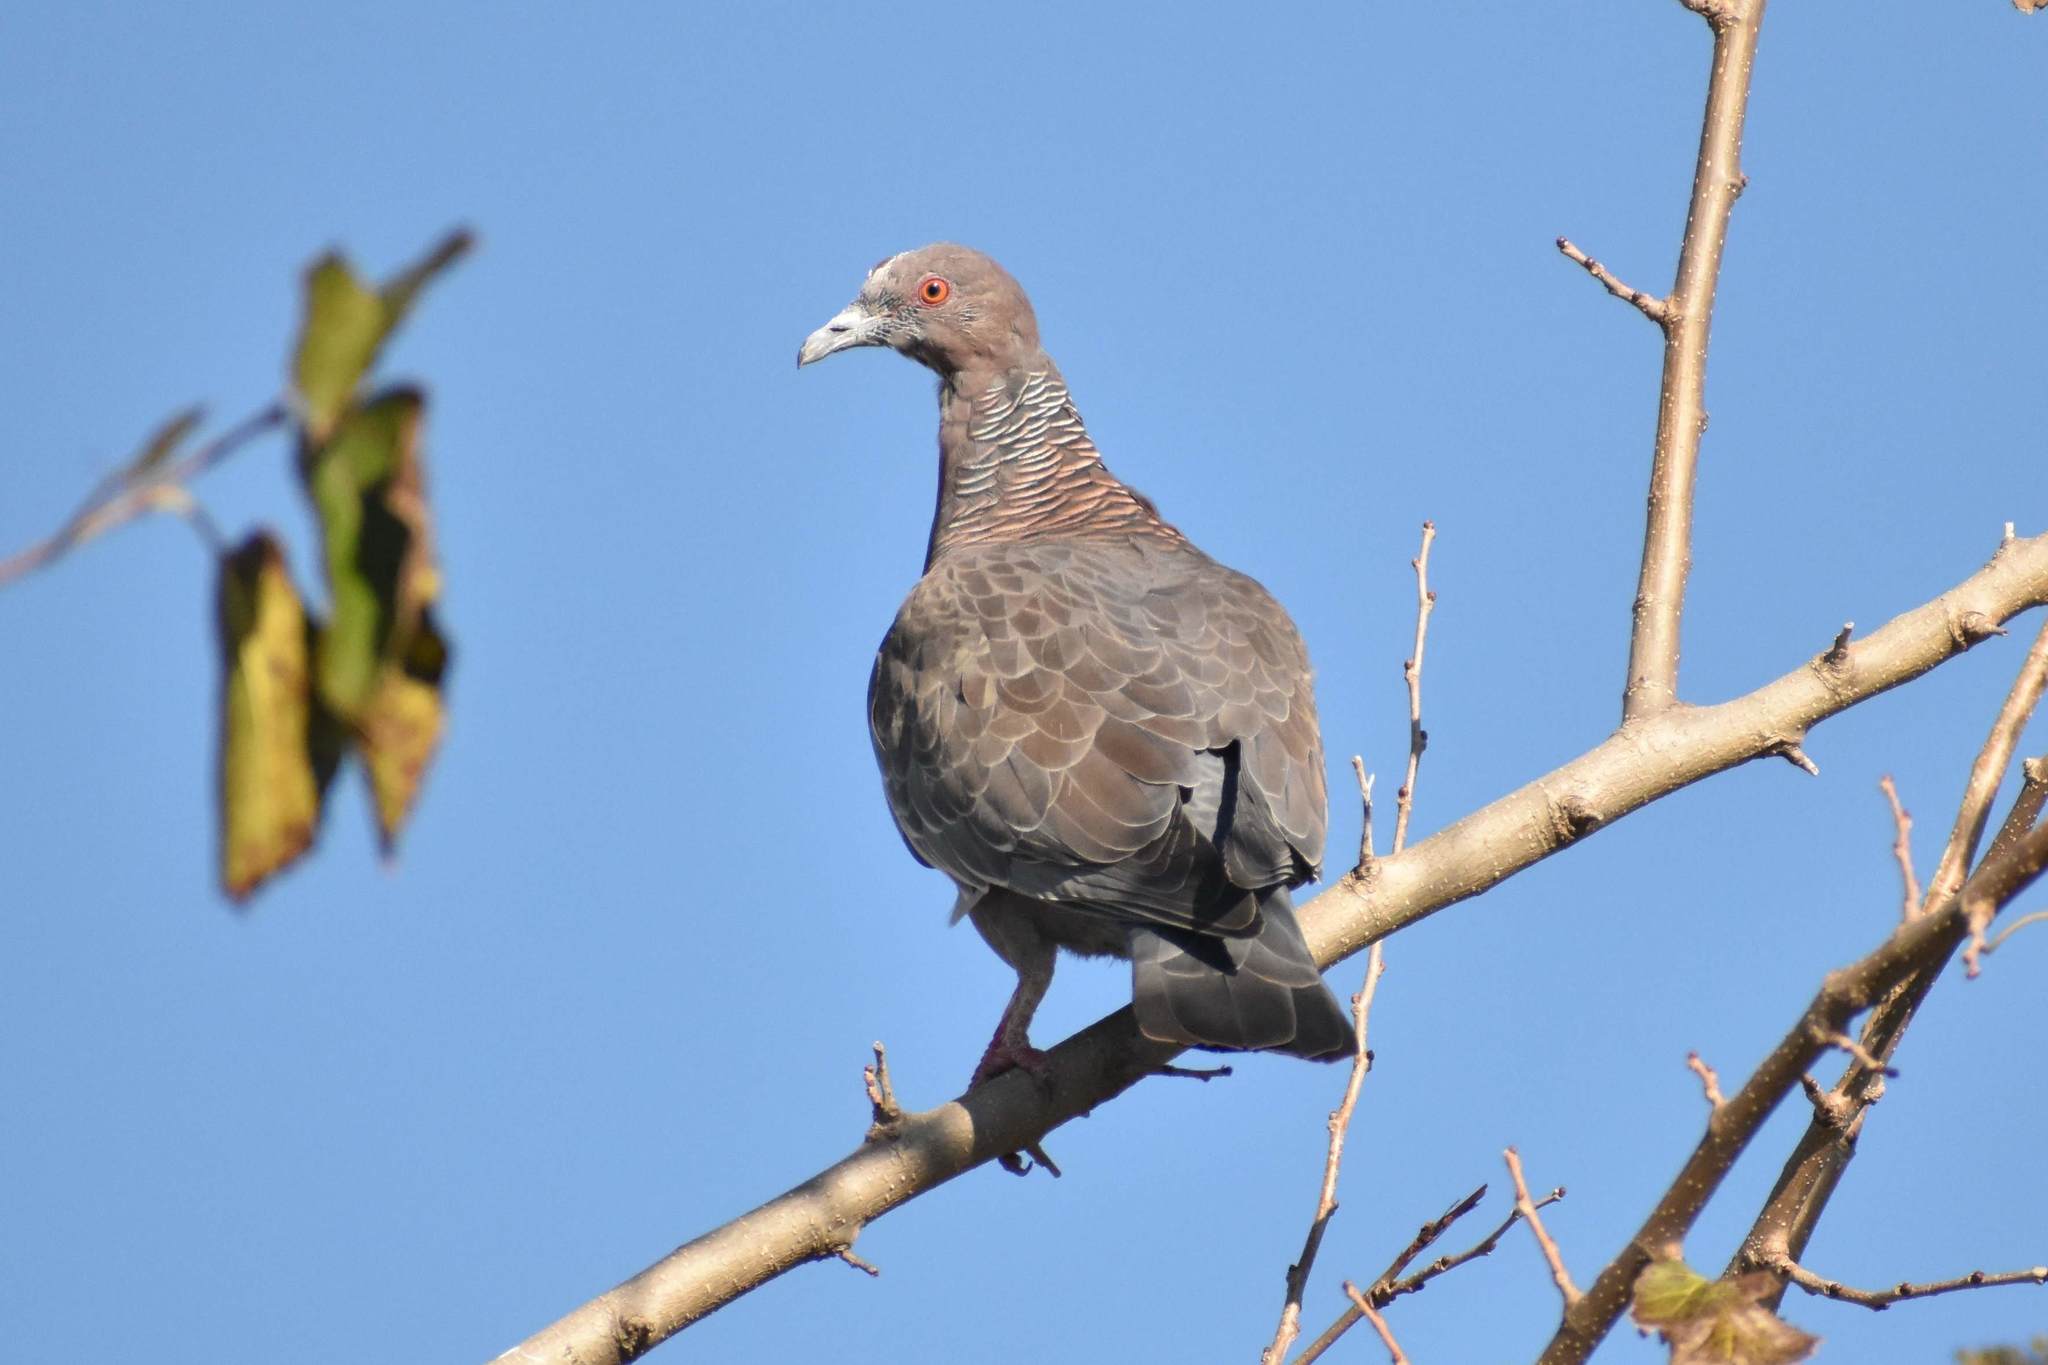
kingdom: Animalia
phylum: Chordata
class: Aves
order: Columbiformes
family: Columbidae
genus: Patagioenas
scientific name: Patagioenas picazuro
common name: Picazuro pigeon
